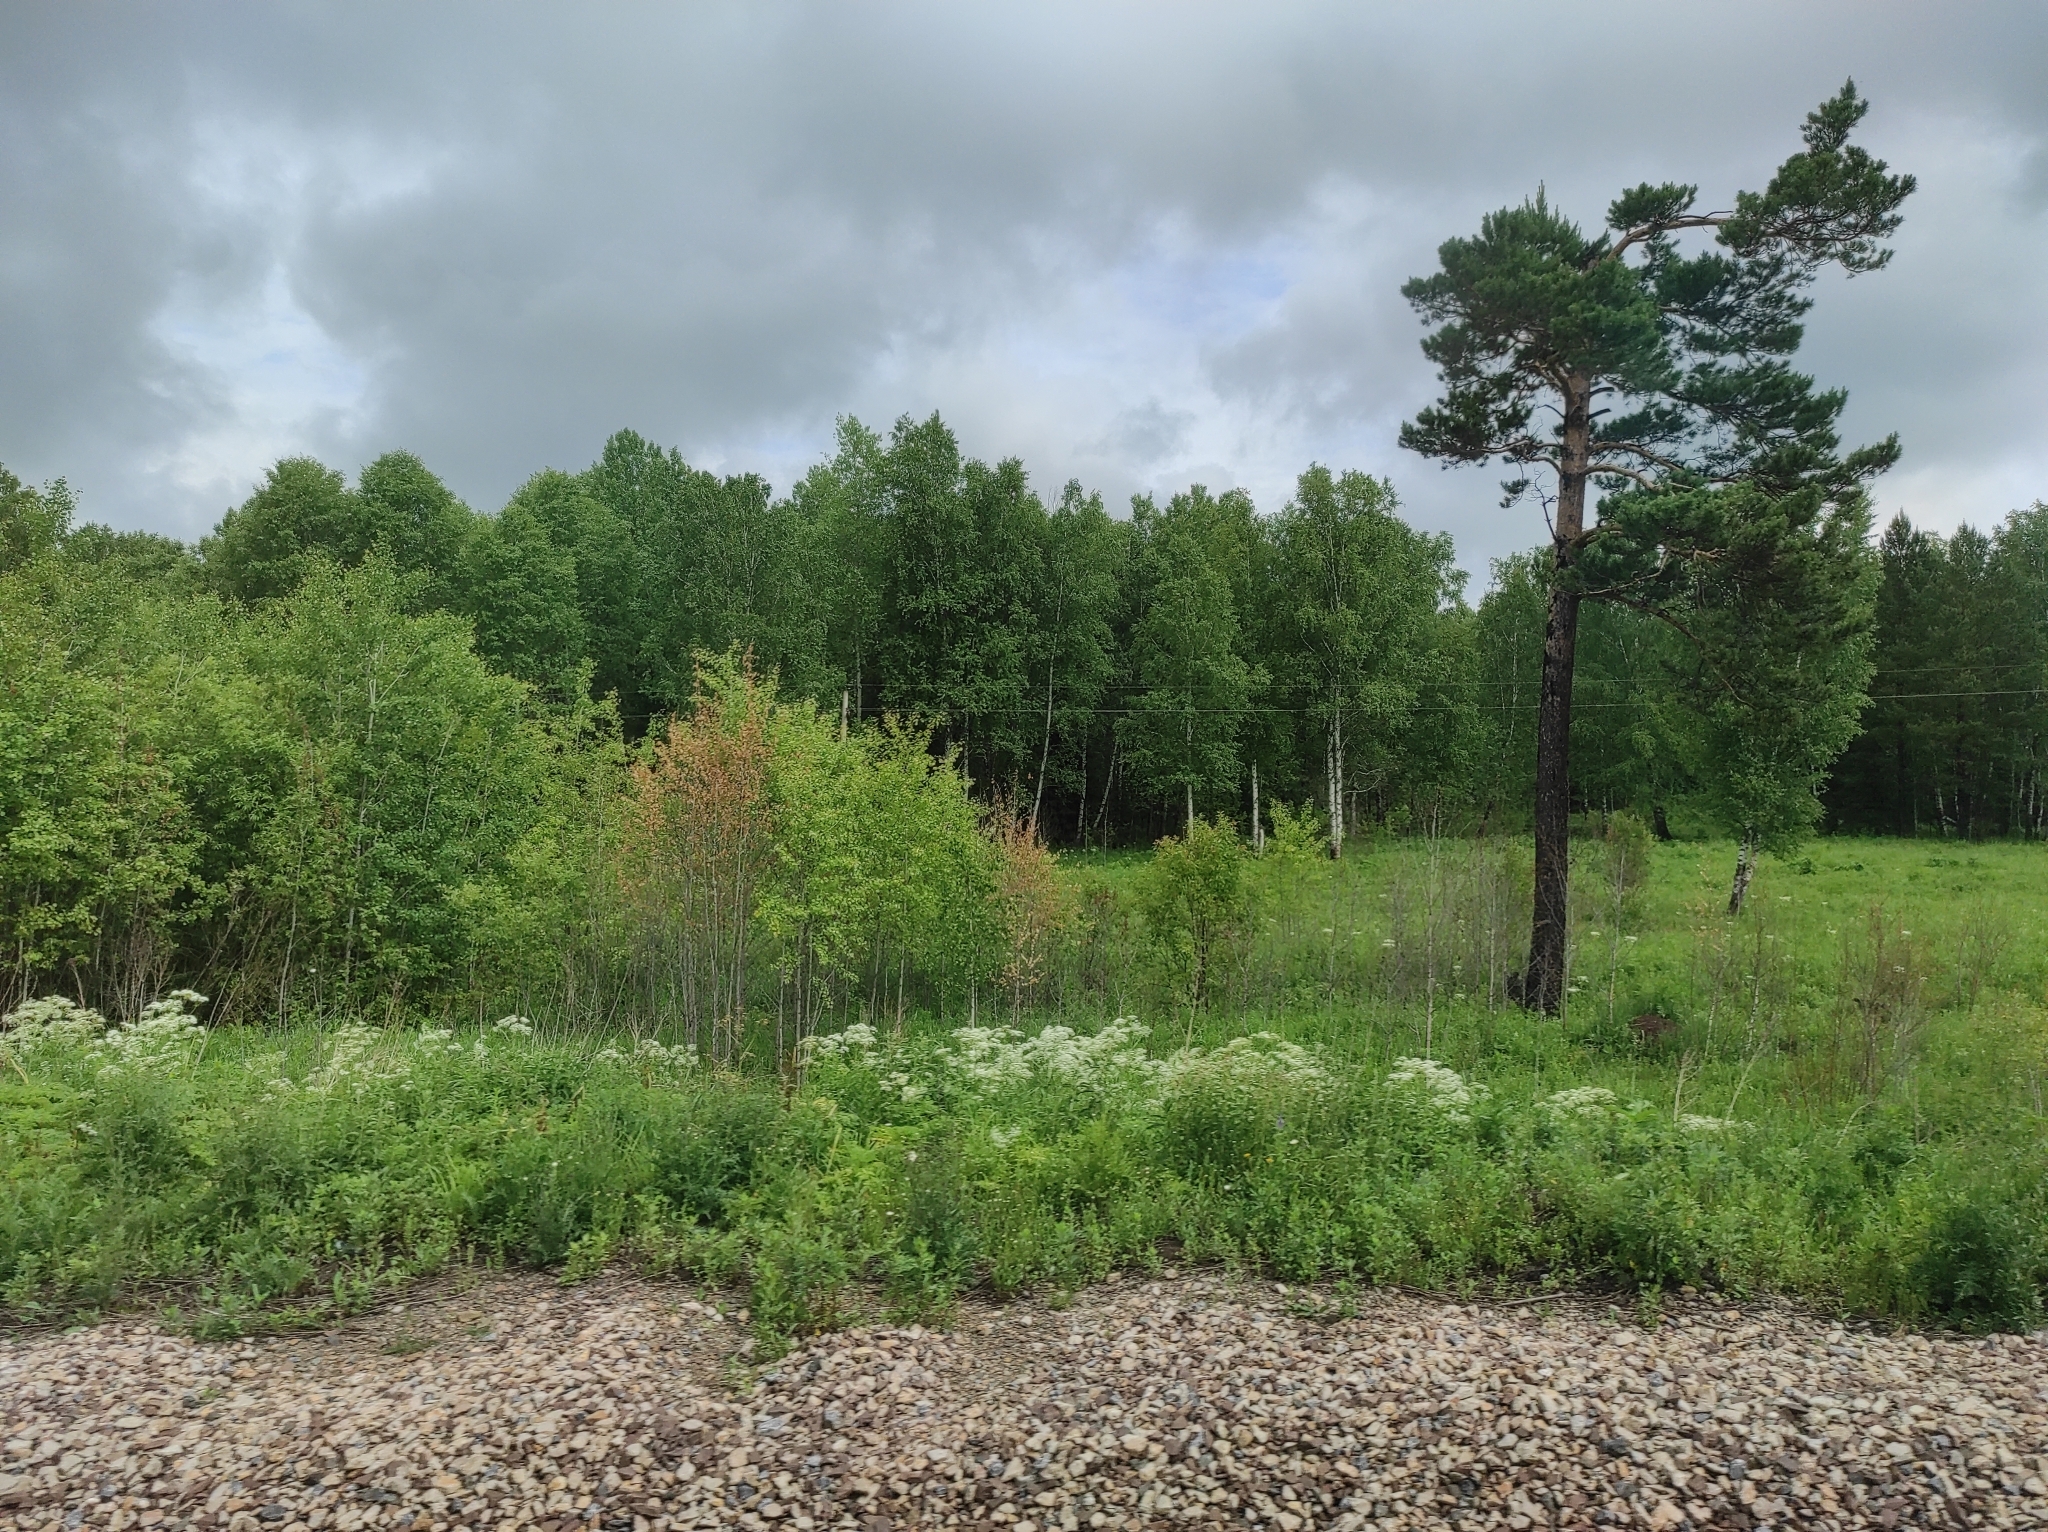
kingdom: Plantae
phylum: Tracheophyta
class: Pinopsida
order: Pinales
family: Pinaceae
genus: Pinus
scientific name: Pinus sylvestris
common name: Scots pine
